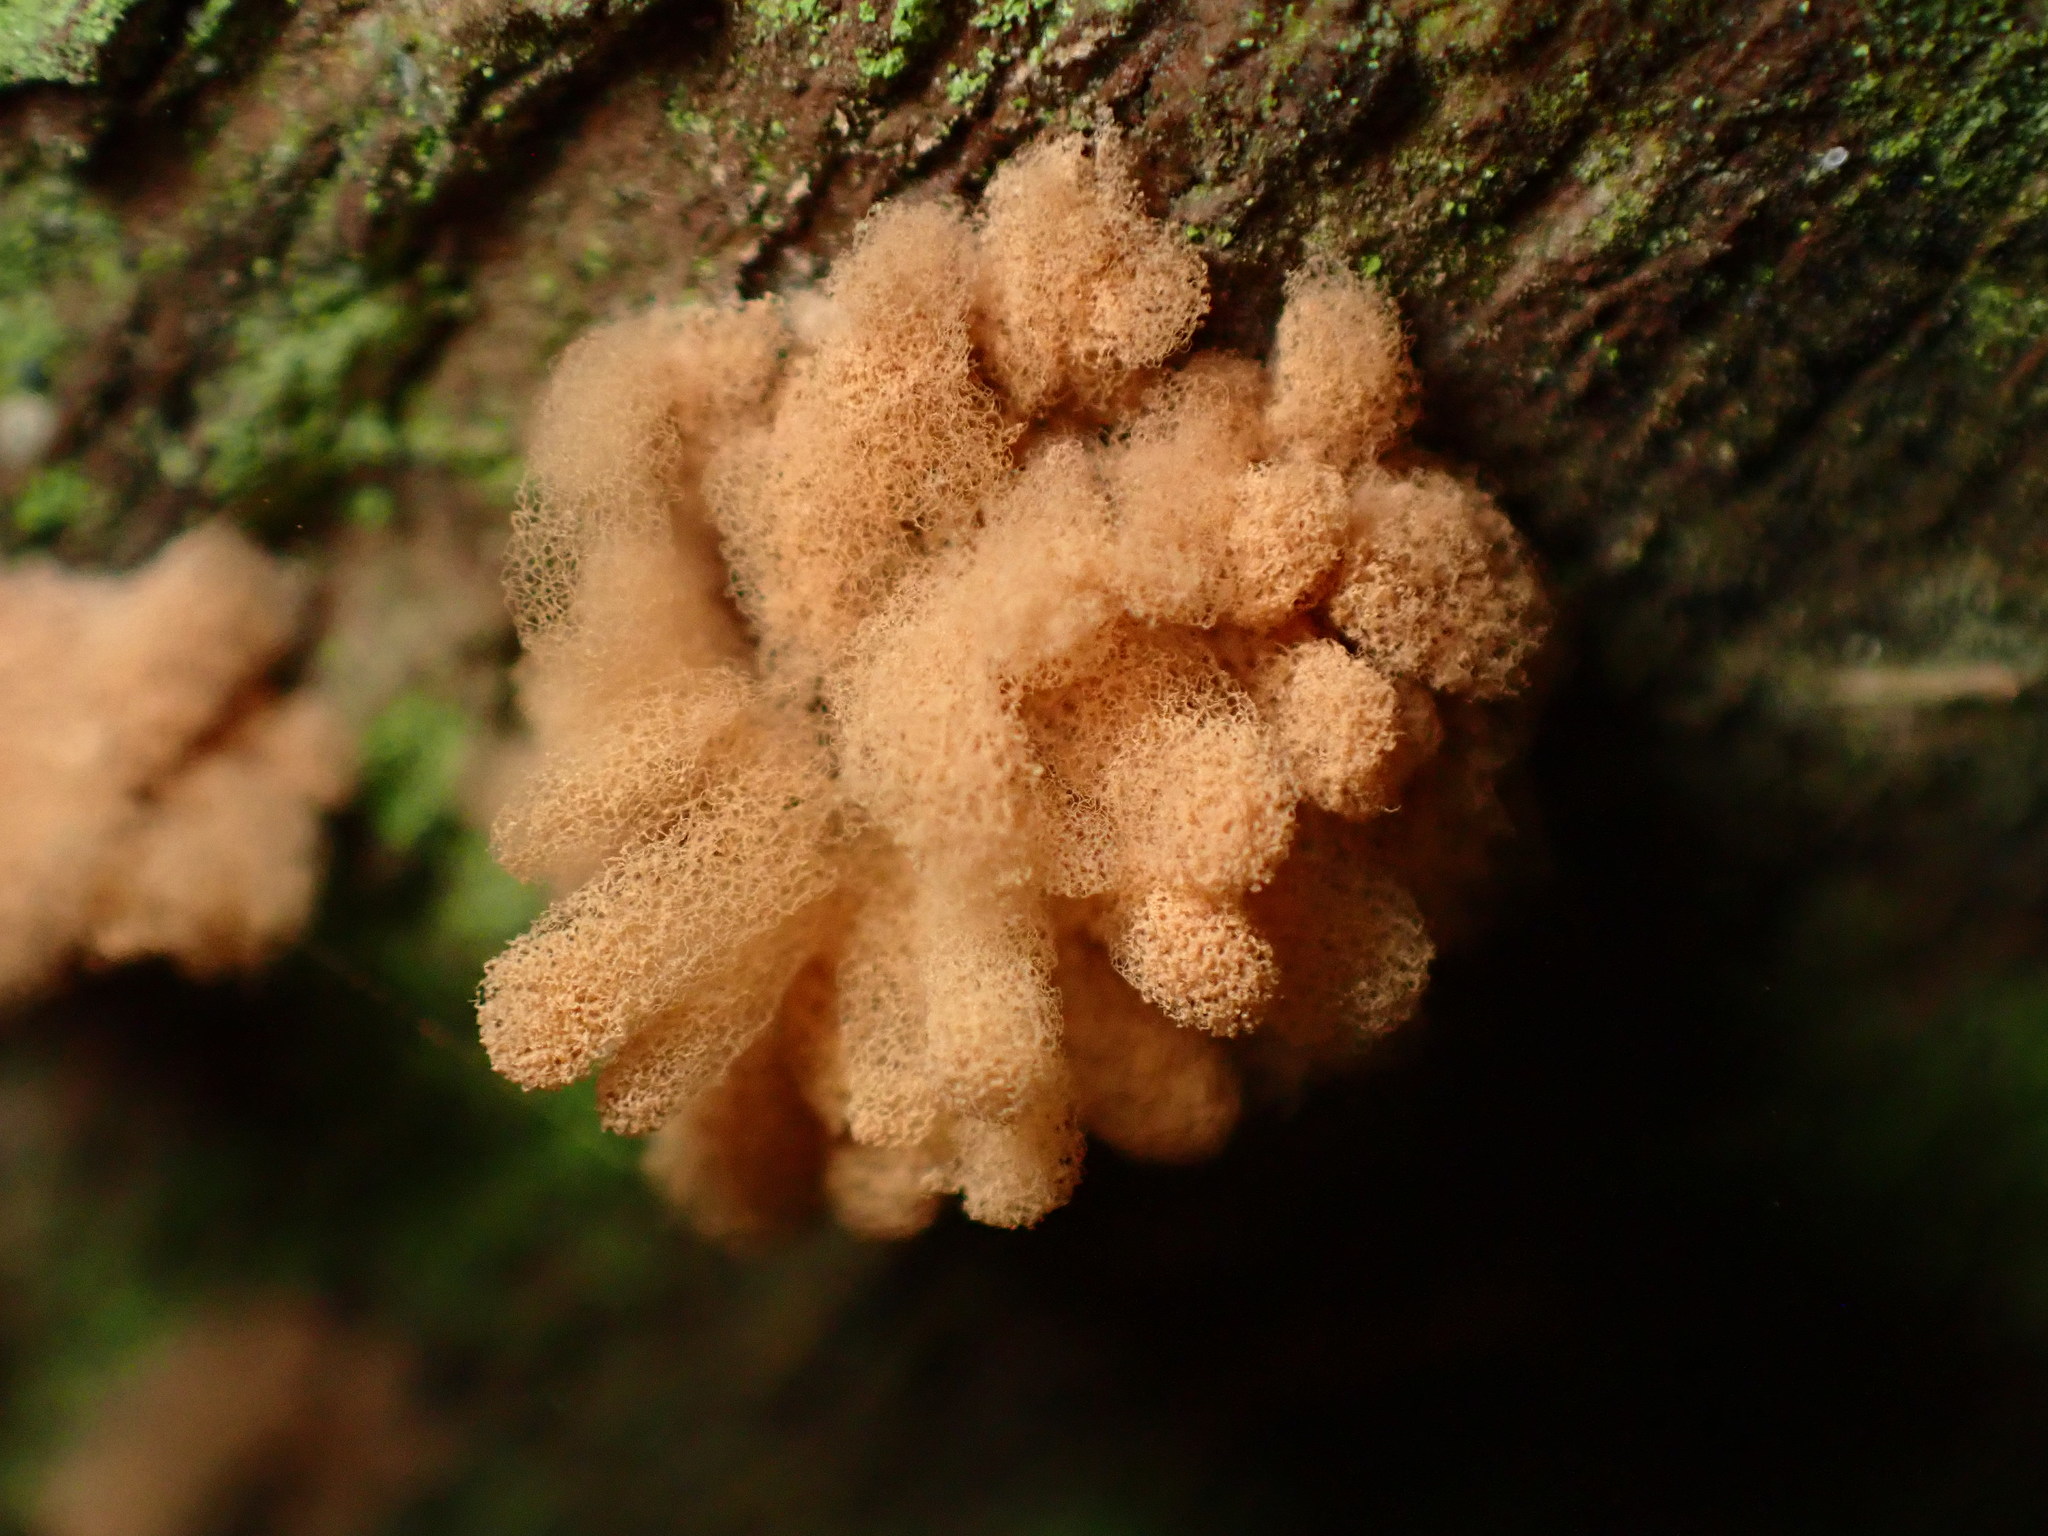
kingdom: Protozoa
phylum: Mycetozoa
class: Myxomycetes
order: Trichiales
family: Arcyriaceae
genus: Arcyria
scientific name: Arcyria obvelata
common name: Yellow carnival candy slime
